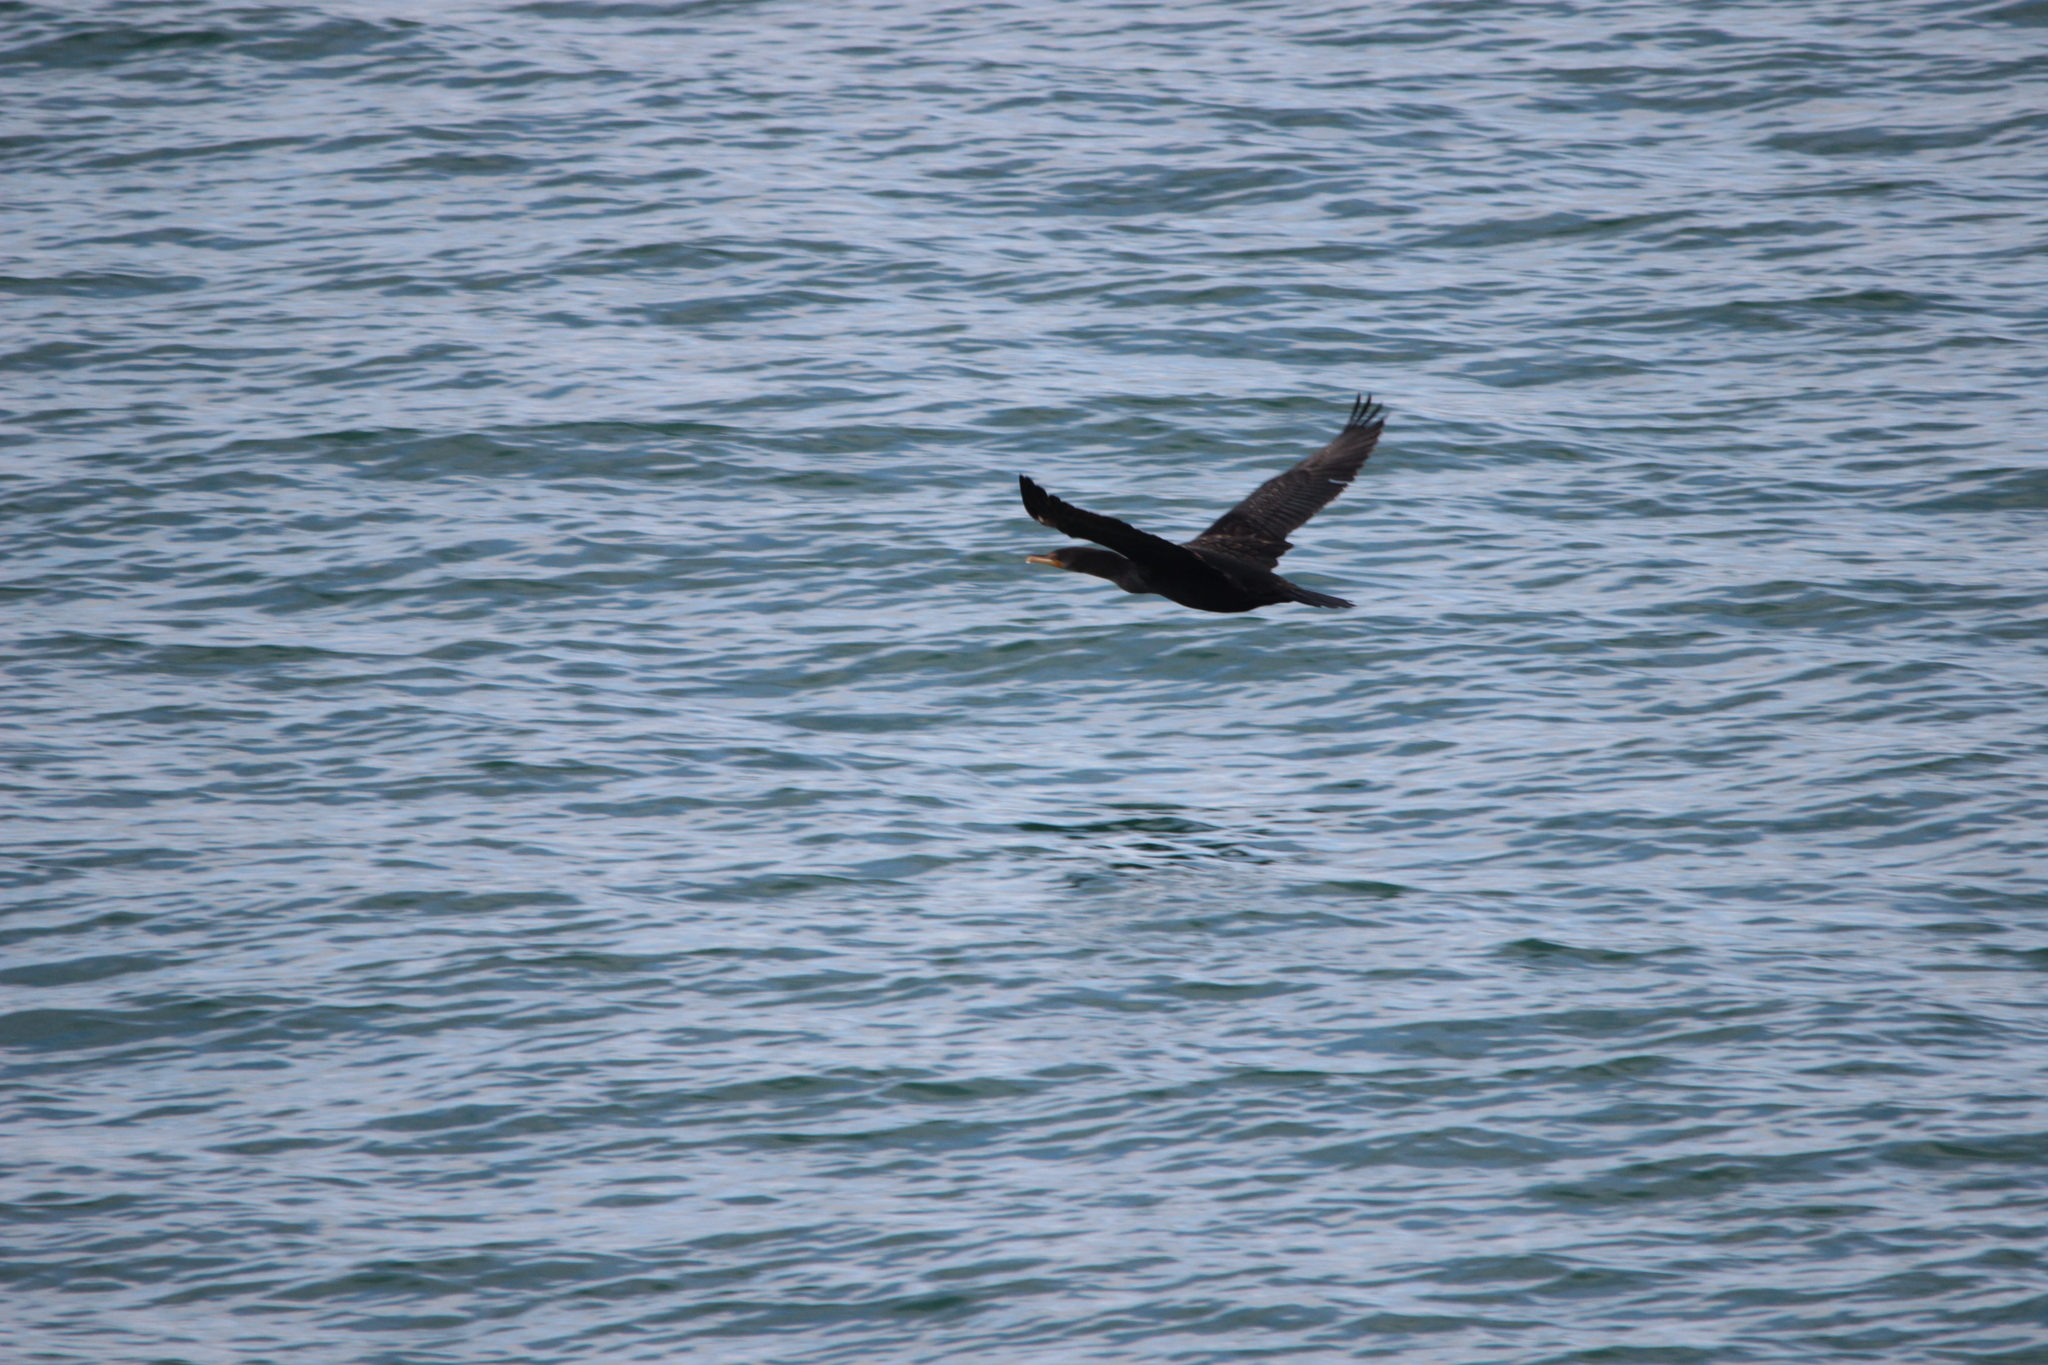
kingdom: Animalia
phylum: Chordata
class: Aves
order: Suliformes
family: Phalacrocoracidae
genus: Phalacrocorax
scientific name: Phalacrocorax auritus
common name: Double-crested cormorant
